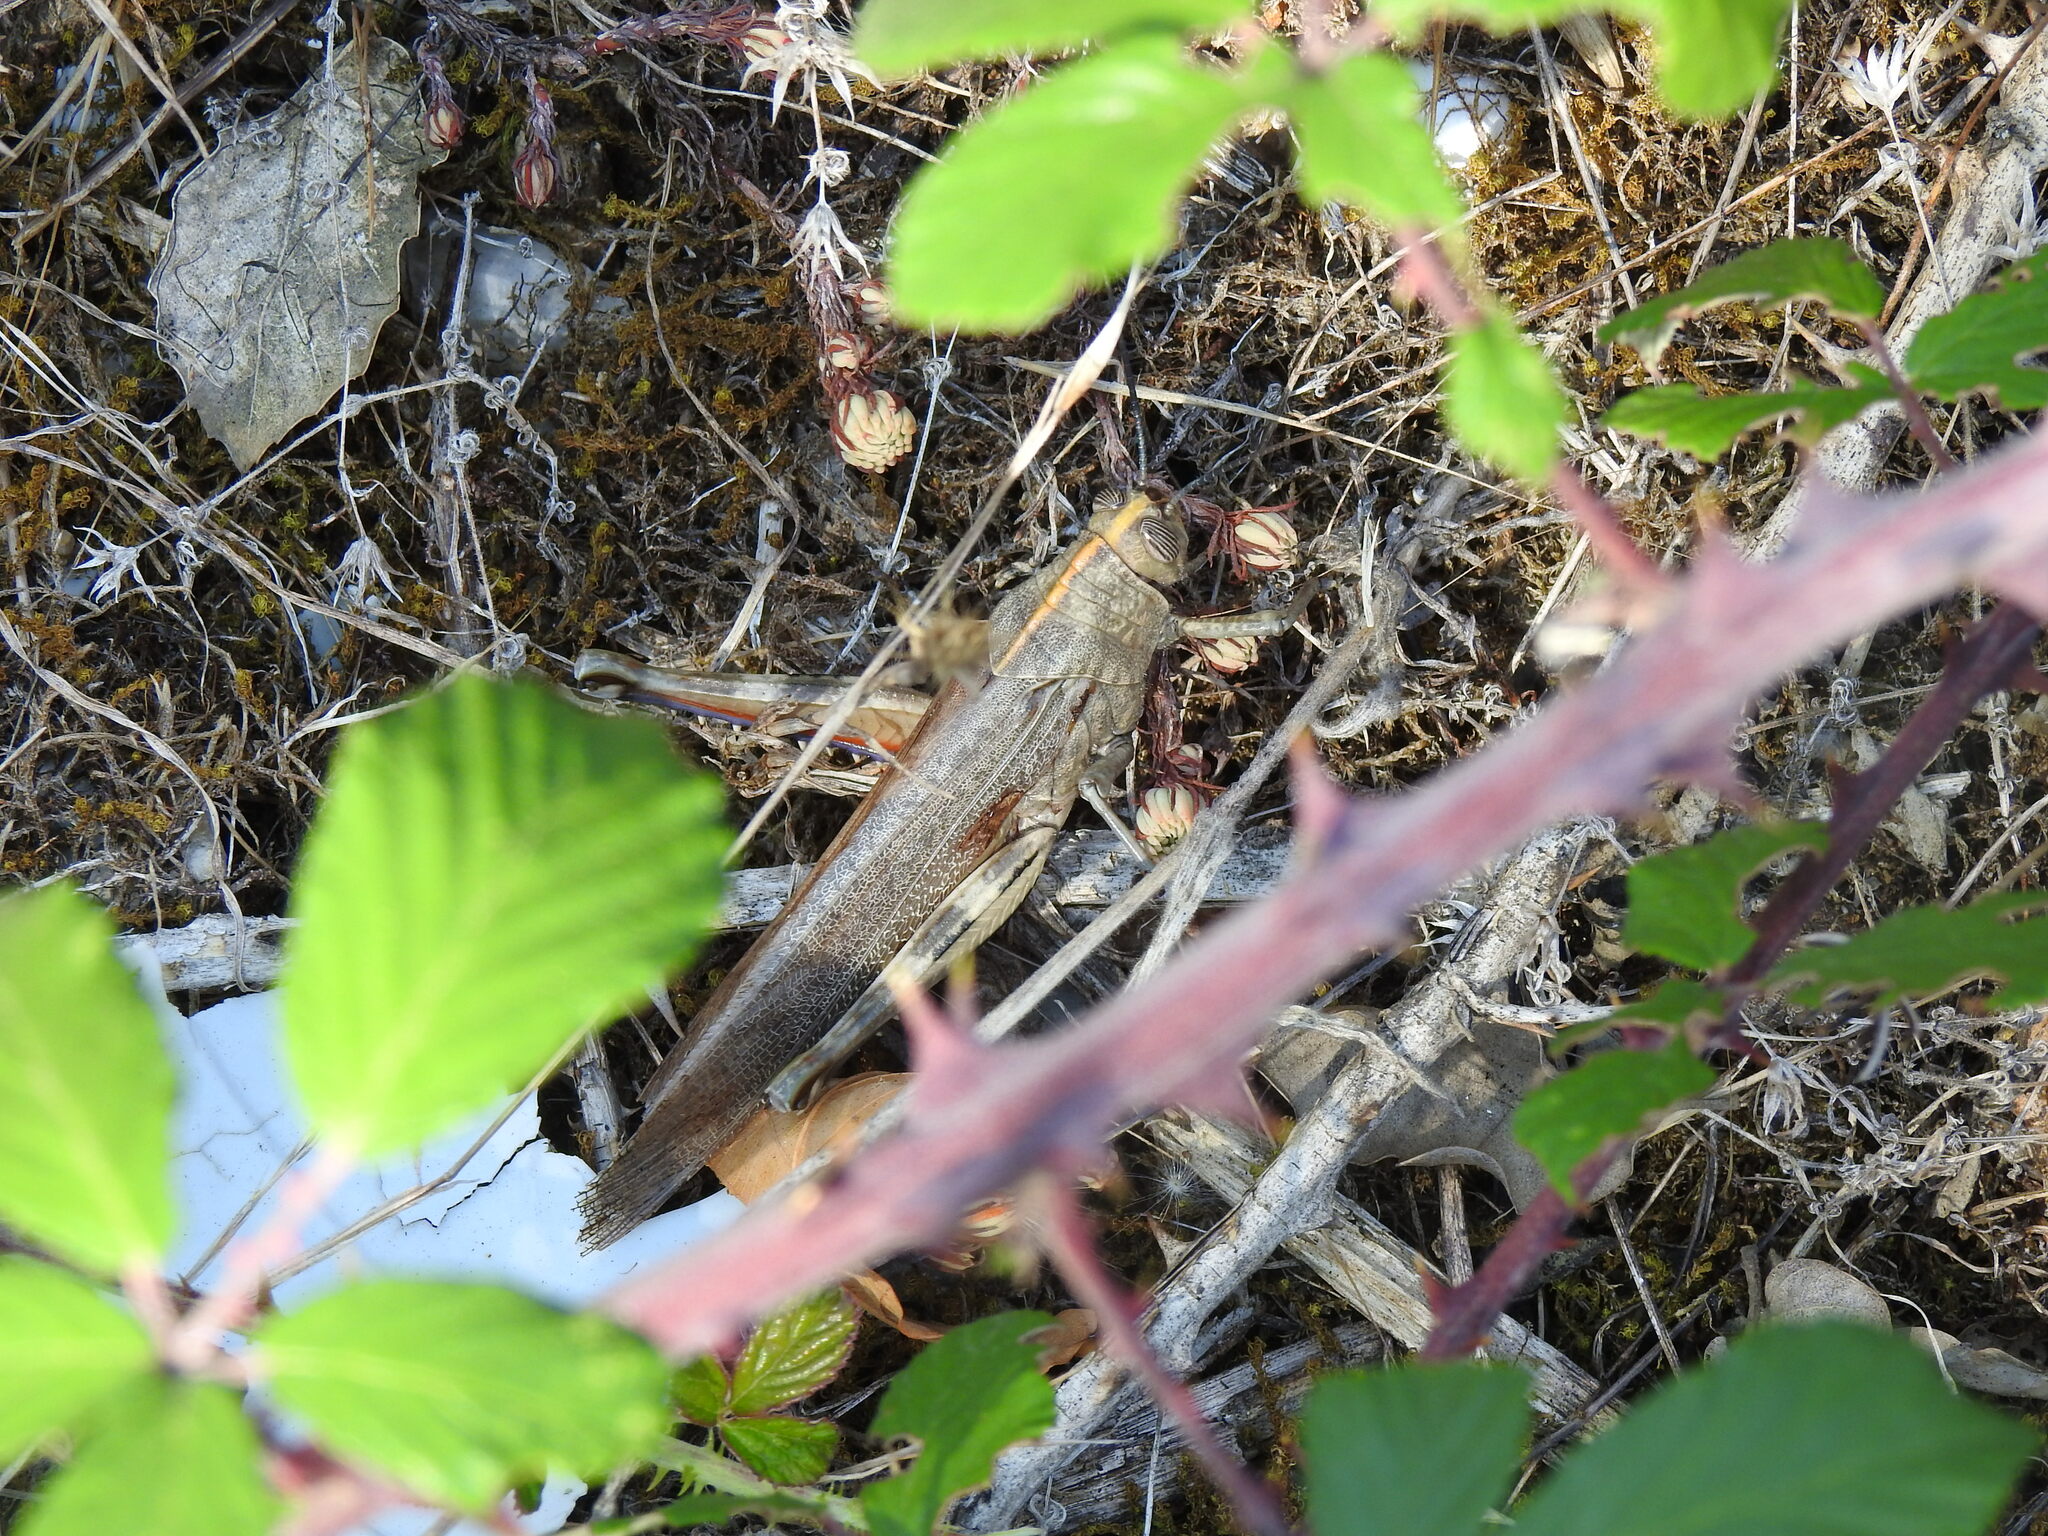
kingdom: Animalia
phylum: Arthropoda
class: Insecta
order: Orthoptera
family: Acrididae
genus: Anacridium
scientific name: Anacridium aegyptium
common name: Egyptian grasshopper
